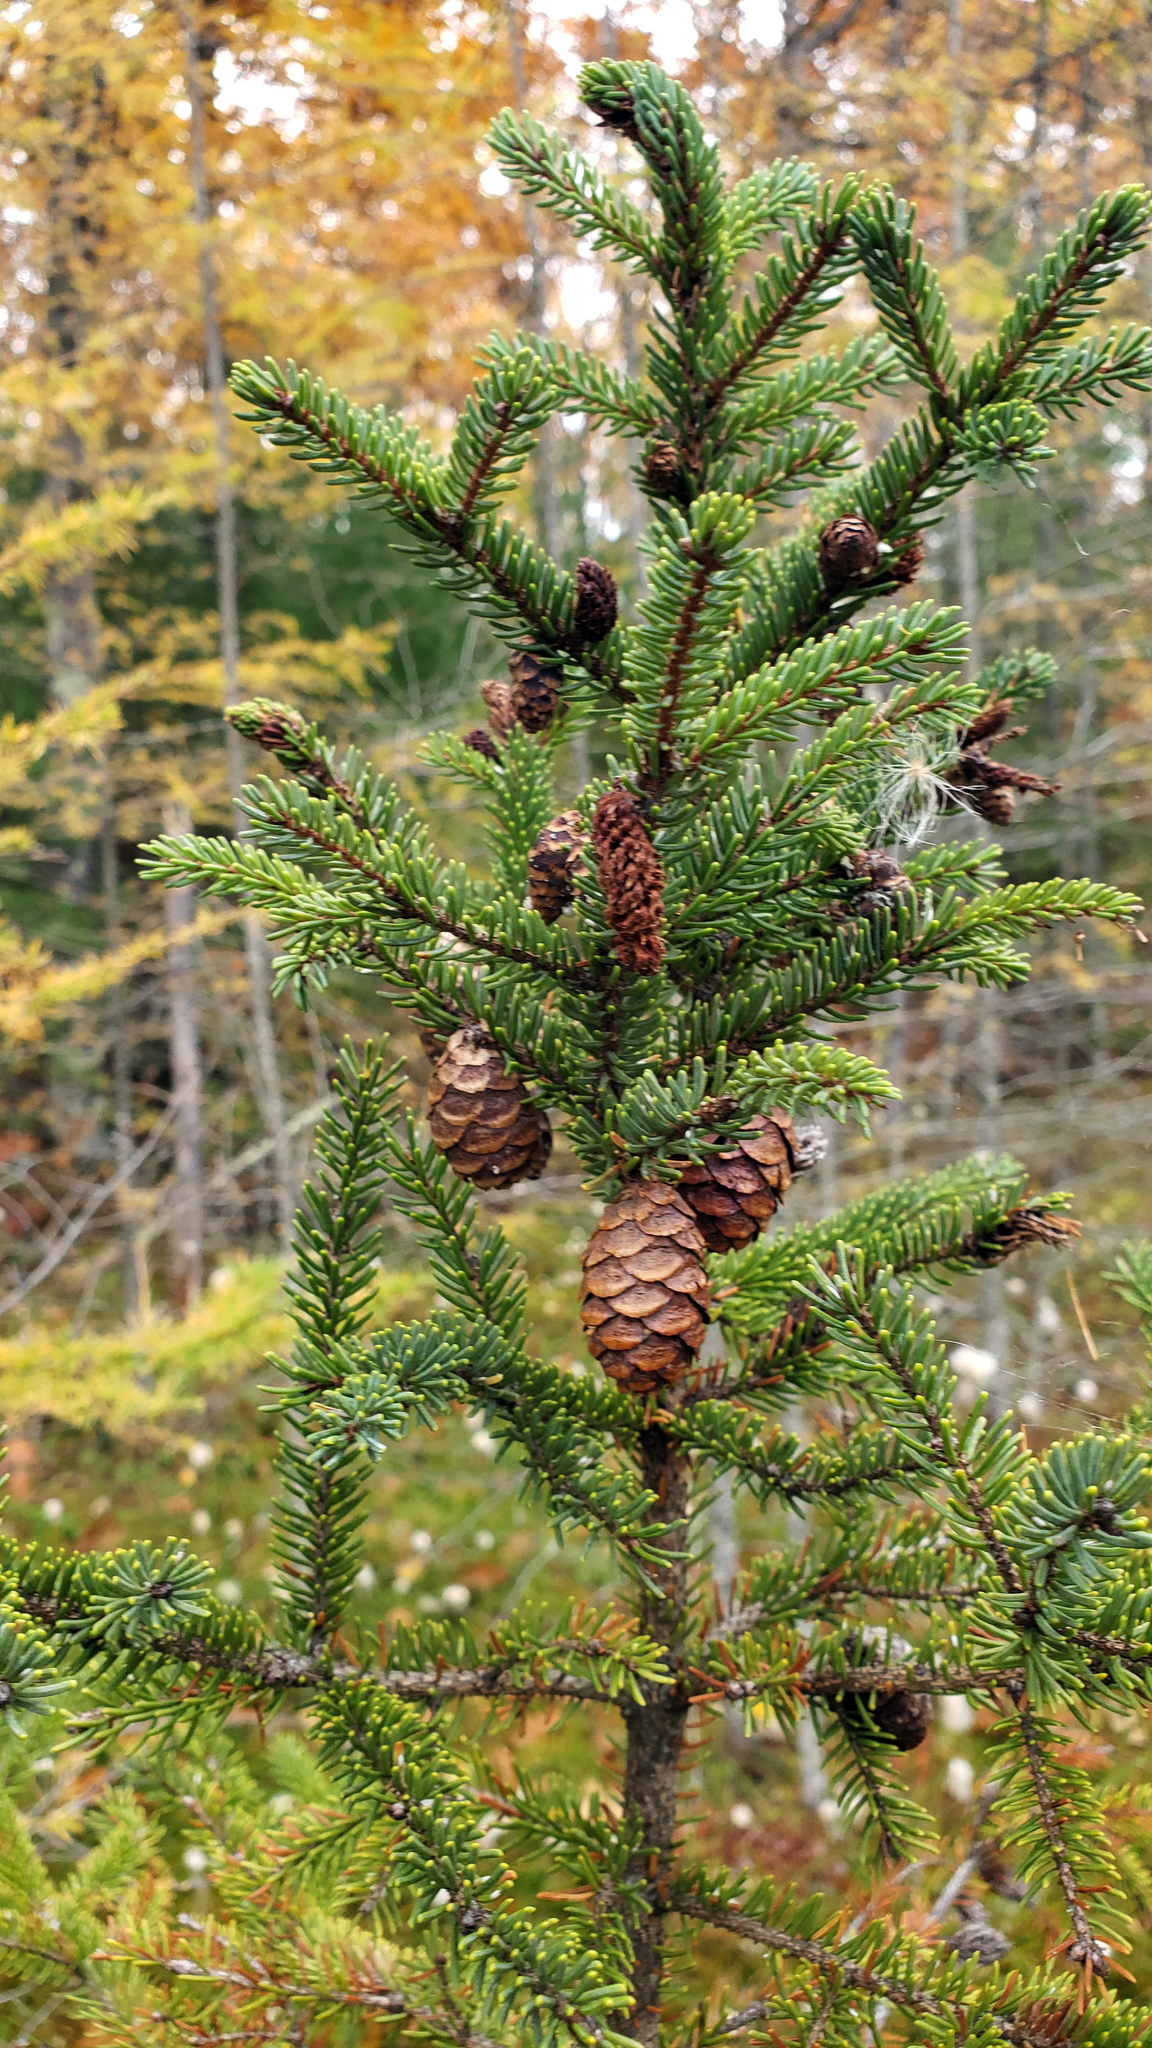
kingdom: Plantae
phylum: Tracheophyta
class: Pinopsida
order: Pinales
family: Pinaceae
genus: Picea
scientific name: Picea mariana
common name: Black spruce
